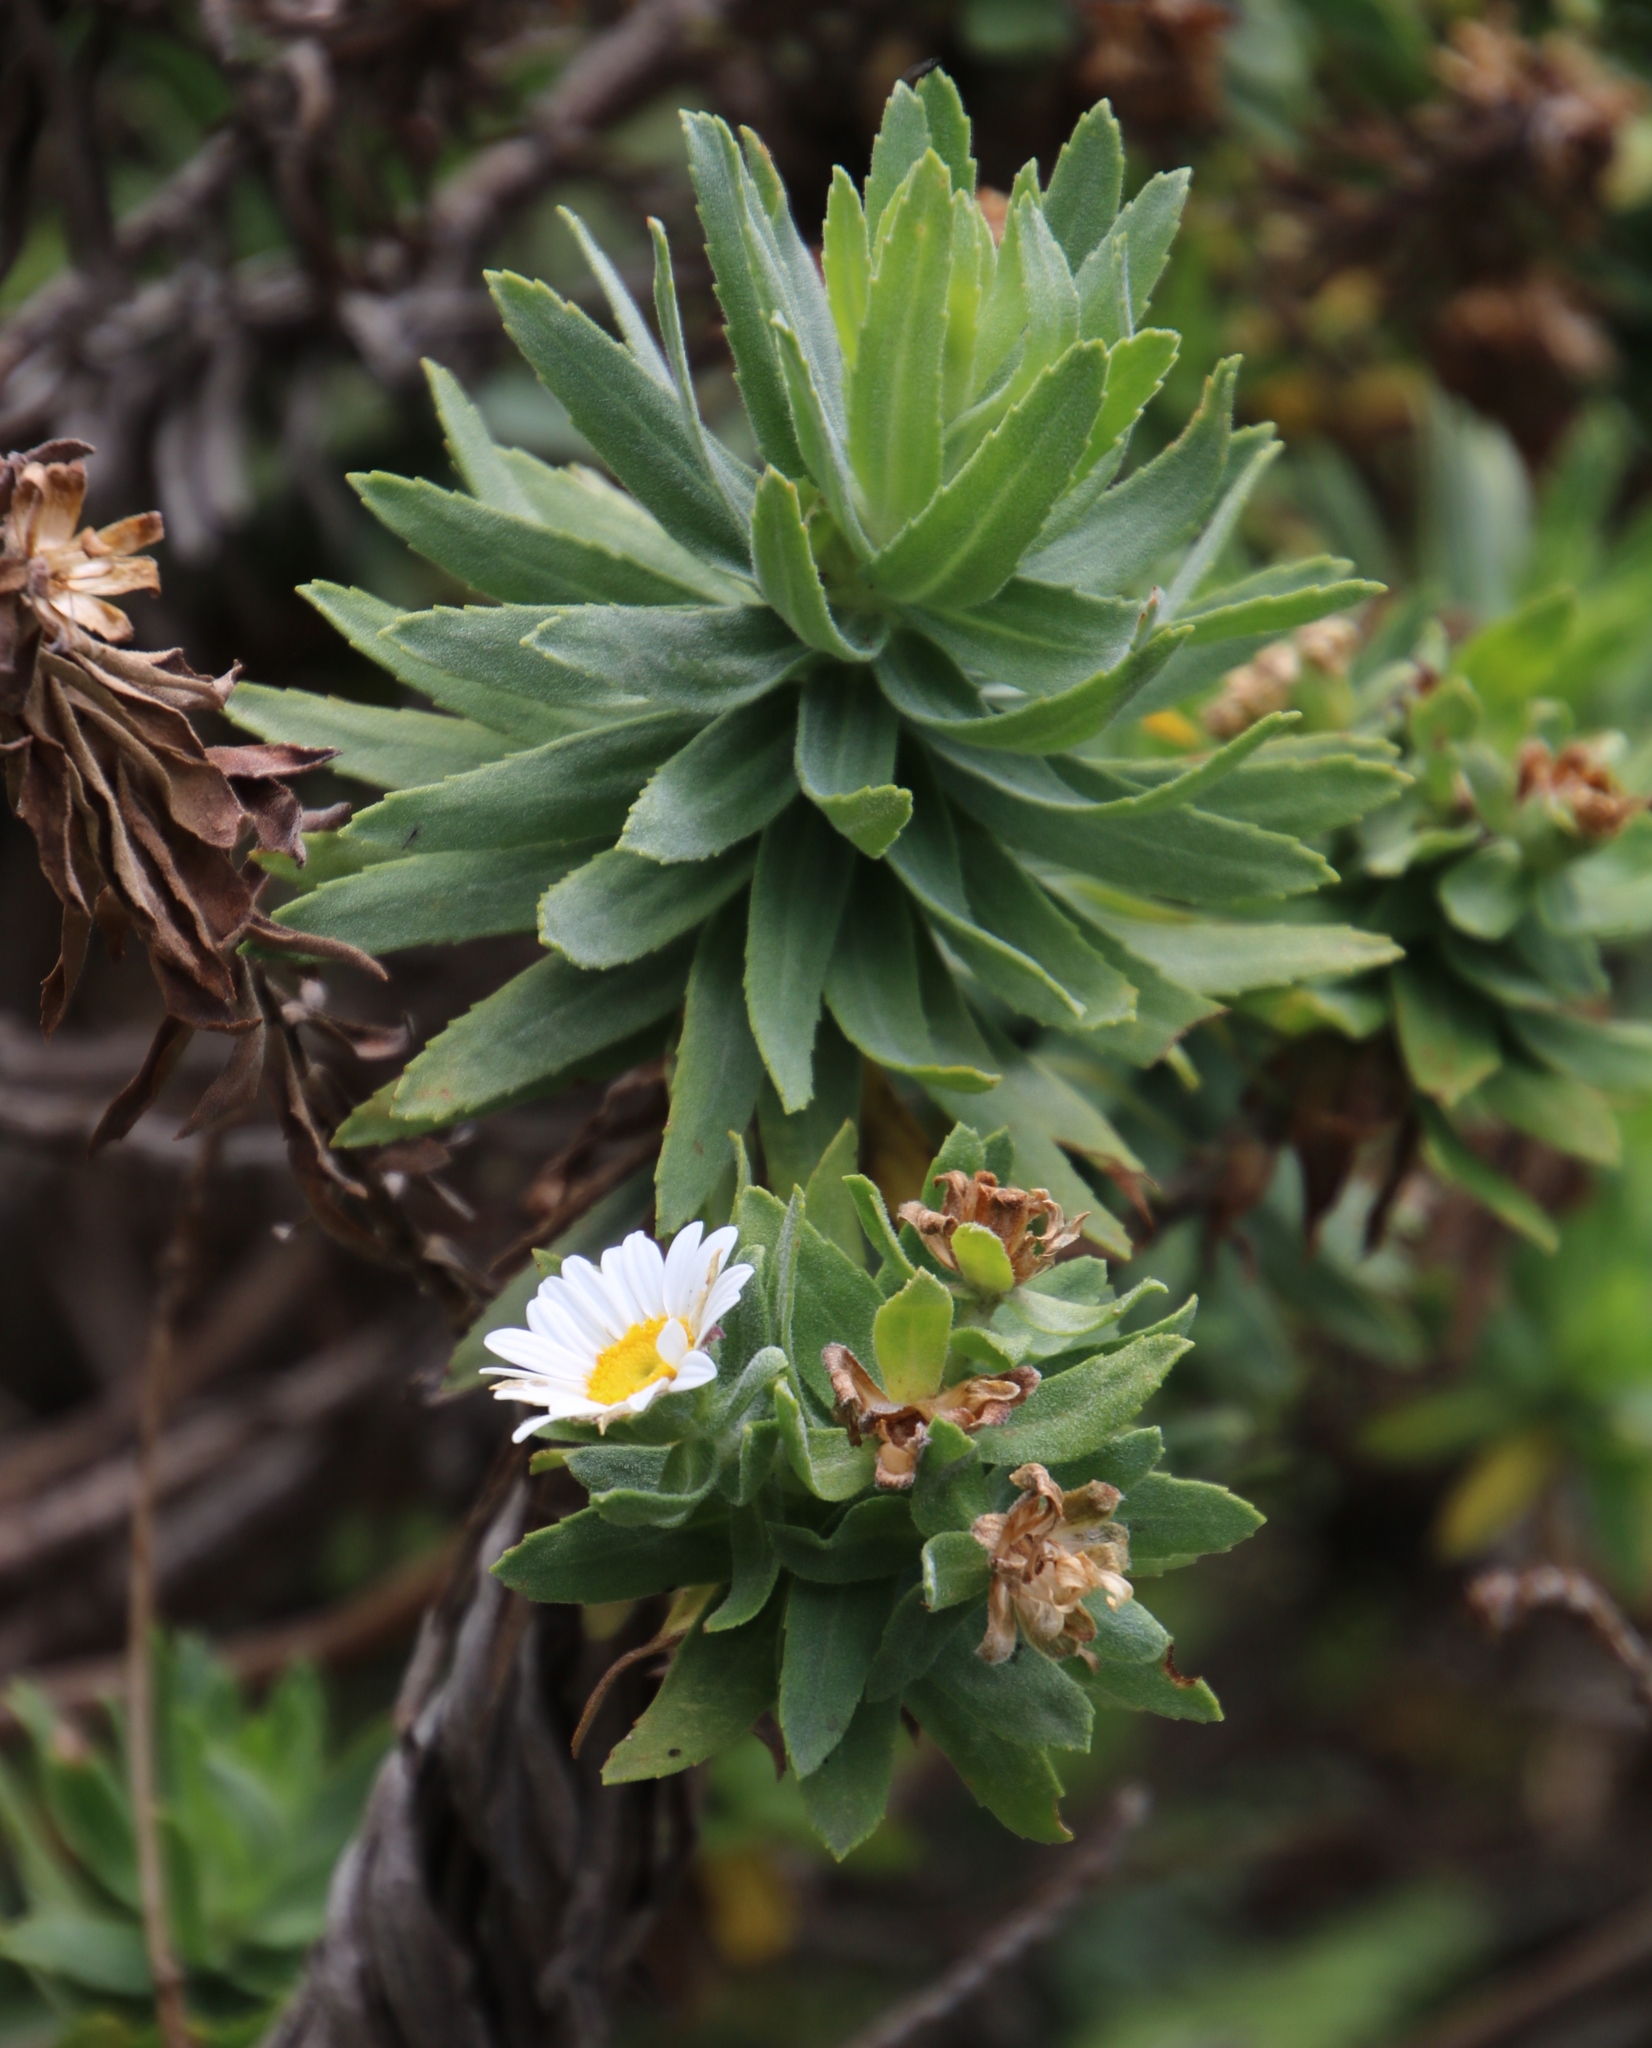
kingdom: Plantae
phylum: Tracheophyta
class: Magnoliopsida
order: Asterales
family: Asteraceae
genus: Osmitopsis
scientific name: Osmitopsis asteriscoides
